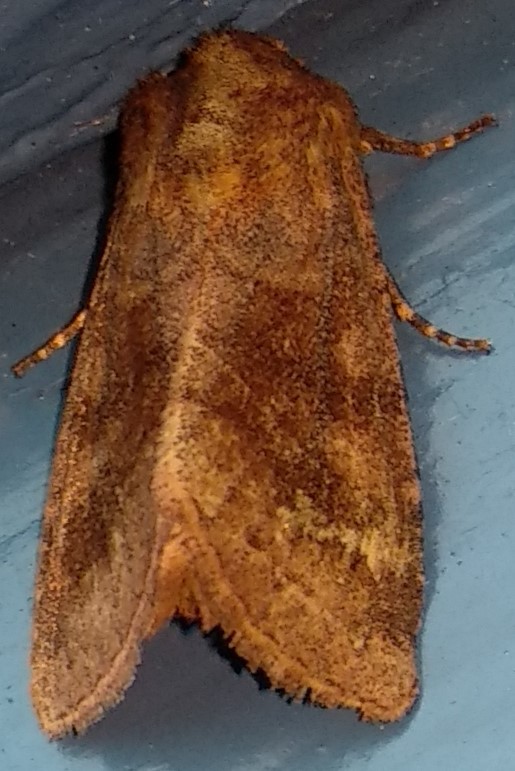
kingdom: Animalia
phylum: Arthropoda
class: Insecta
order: Lepidoptera
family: Noctuidae
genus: Nephelodes
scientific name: Nephelodes minians
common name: Bronzed cutworm
